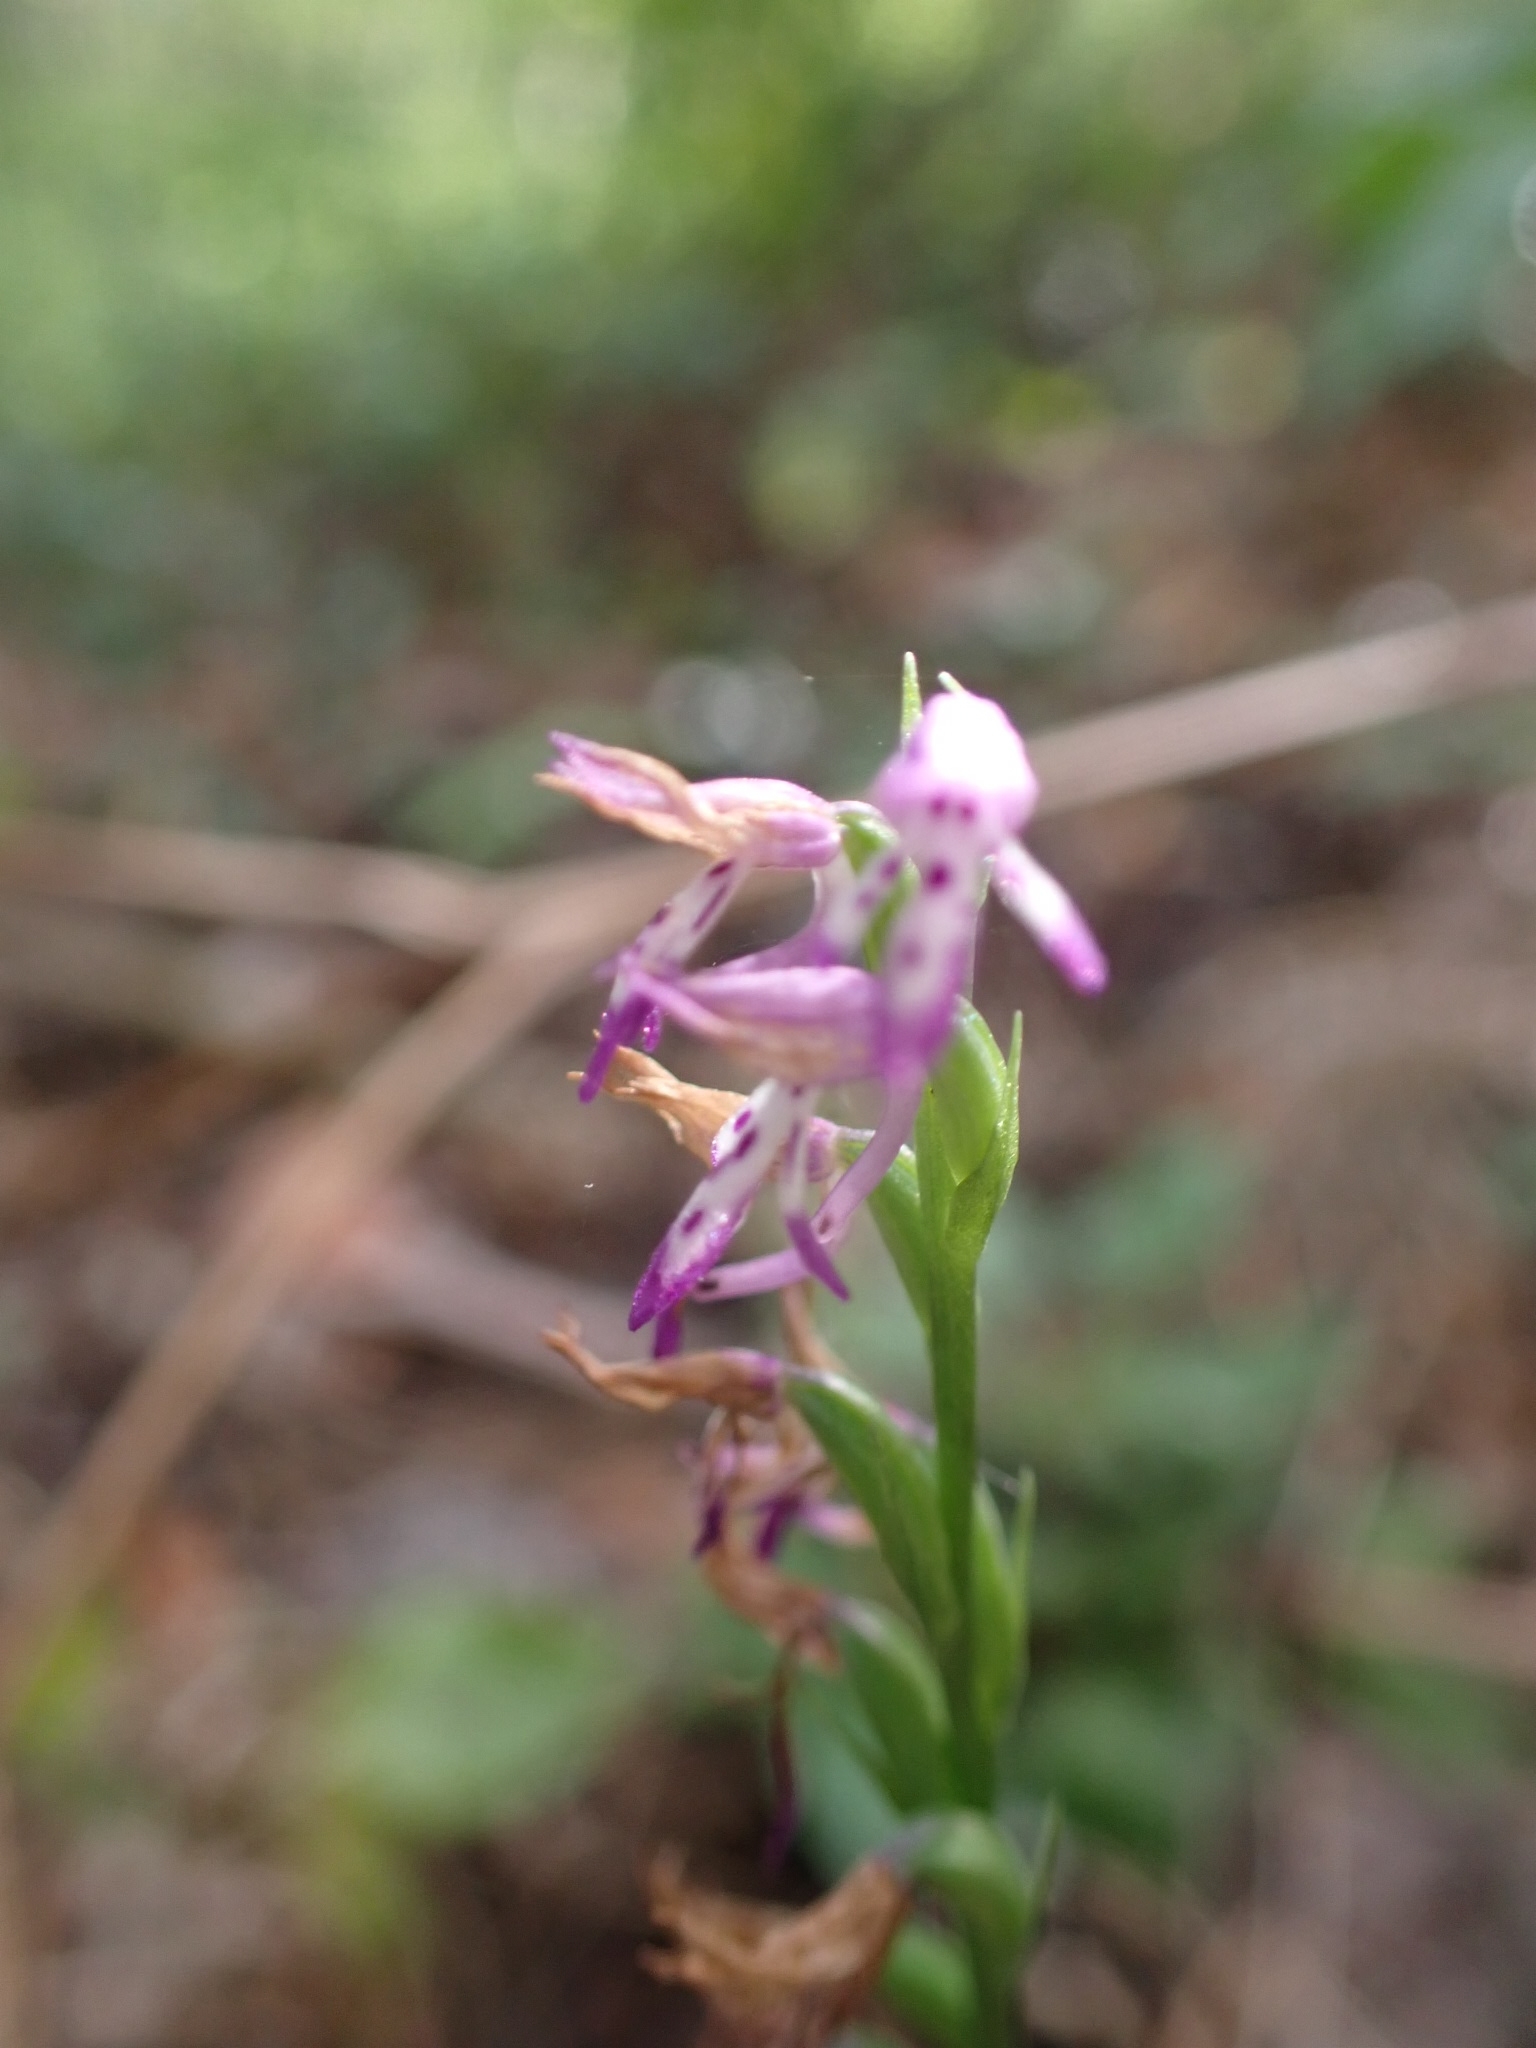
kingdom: Plantae
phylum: Tracheophyta
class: Liliopsida
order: Asparagales
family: Orchidaceae
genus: Hemipilia
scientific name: Hemipilia cucullata
